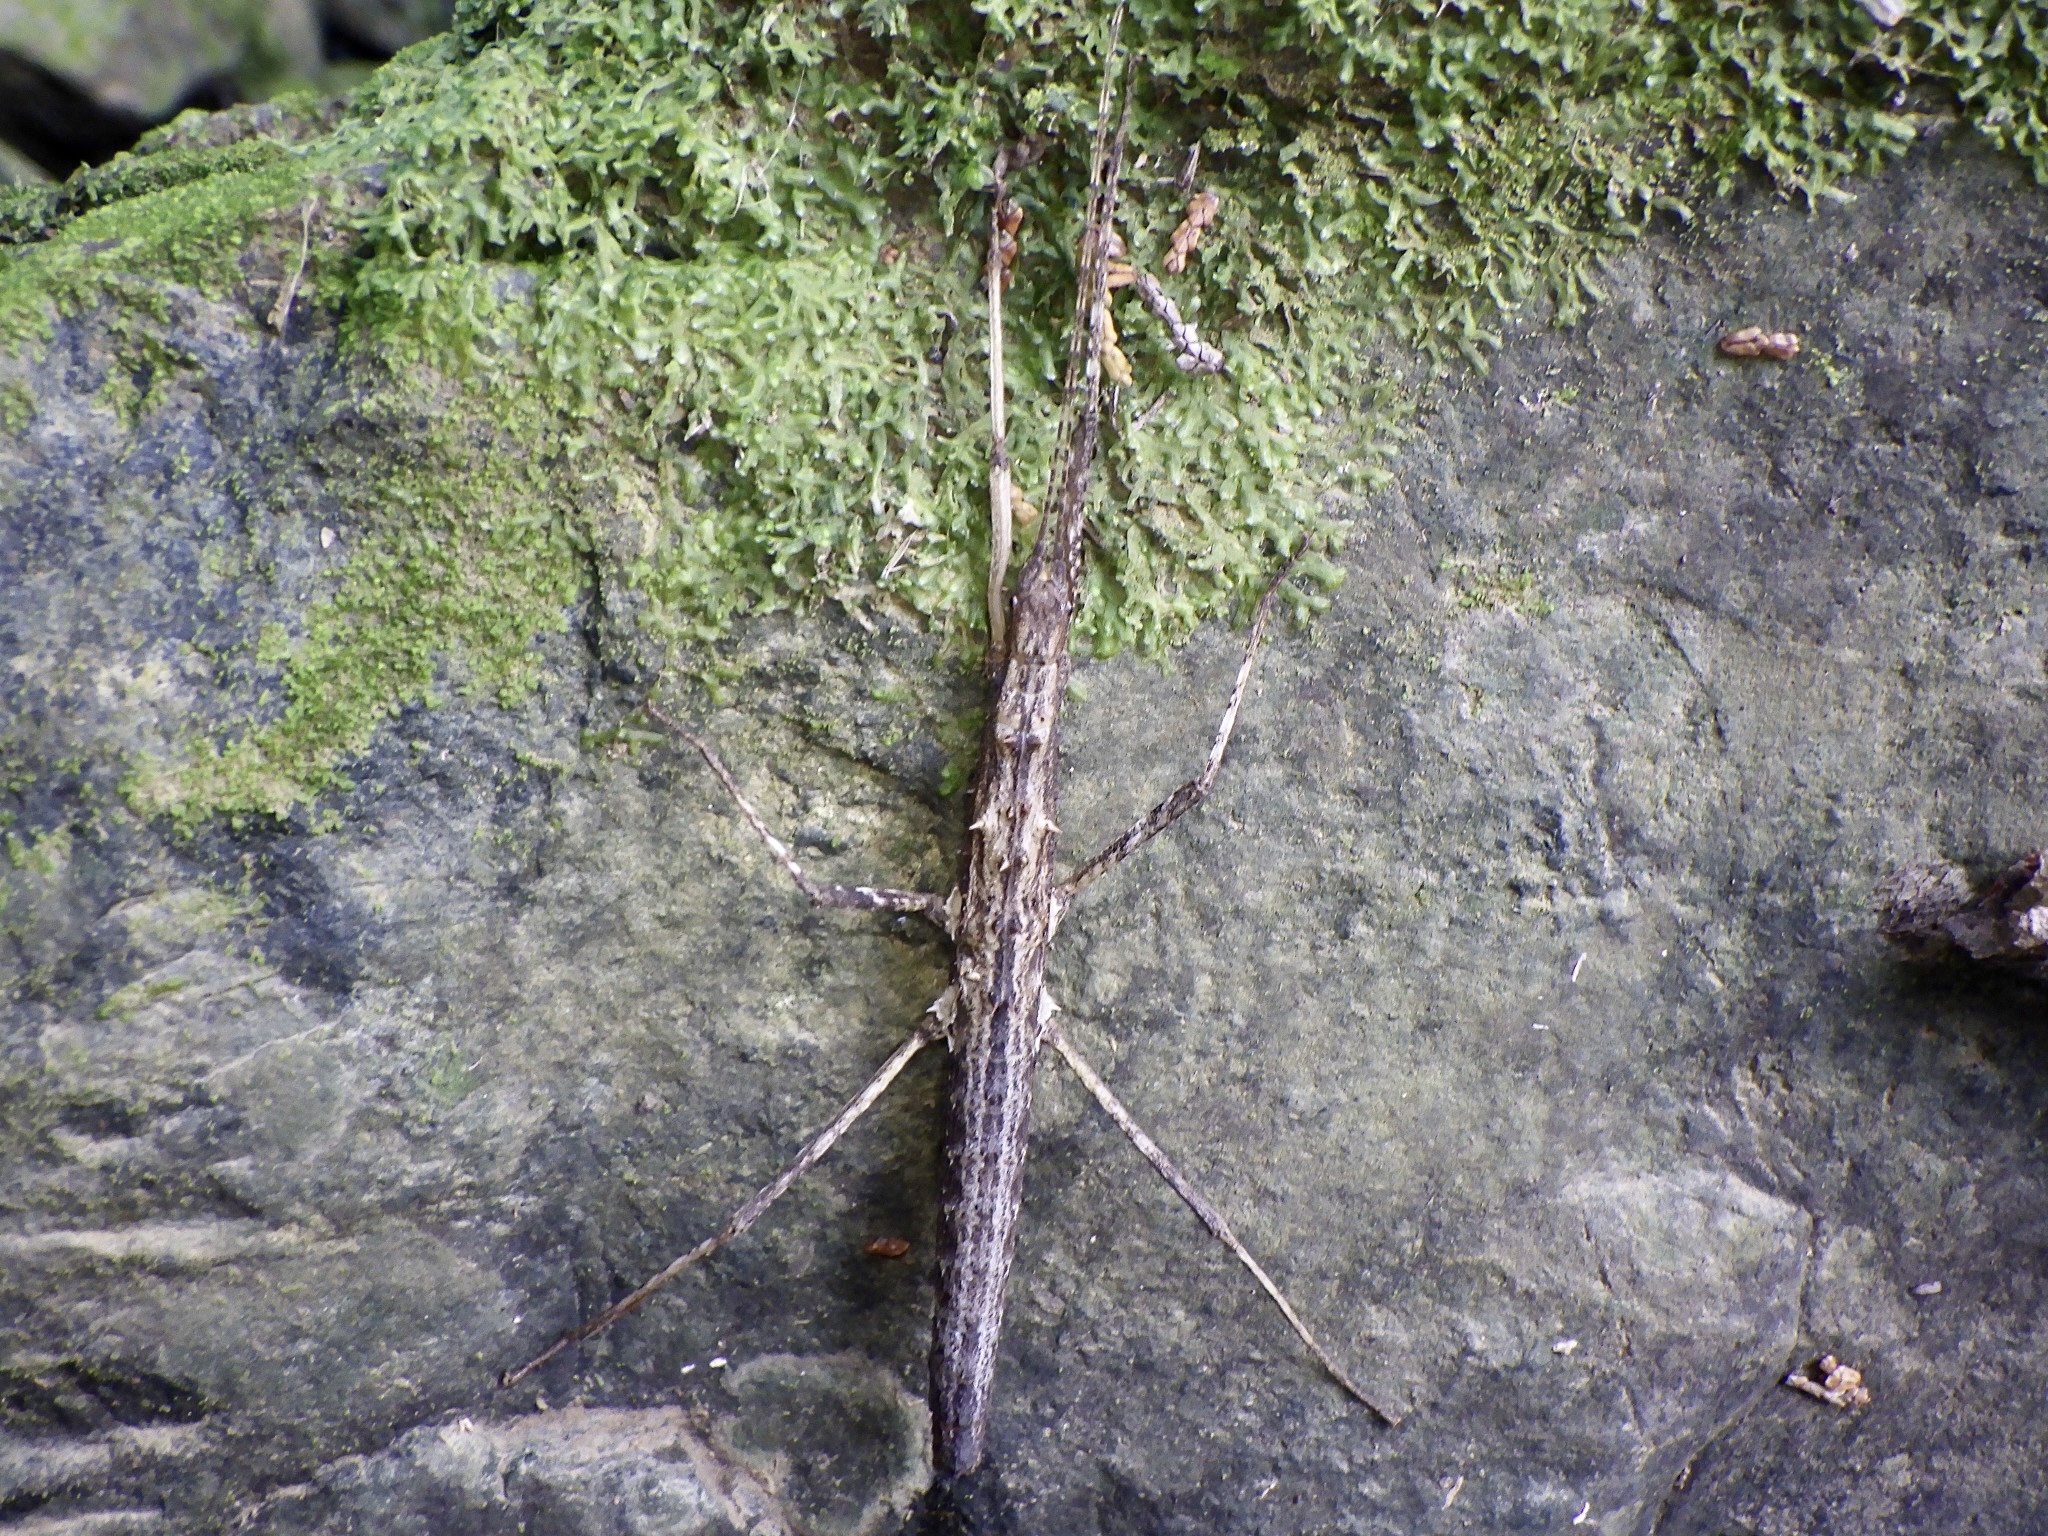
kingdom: Animalia
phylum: Arthropoda
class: Insecta
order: Phasmida
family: Lonchodidae
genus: Neohirasea
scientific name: Neohirasea japonica
